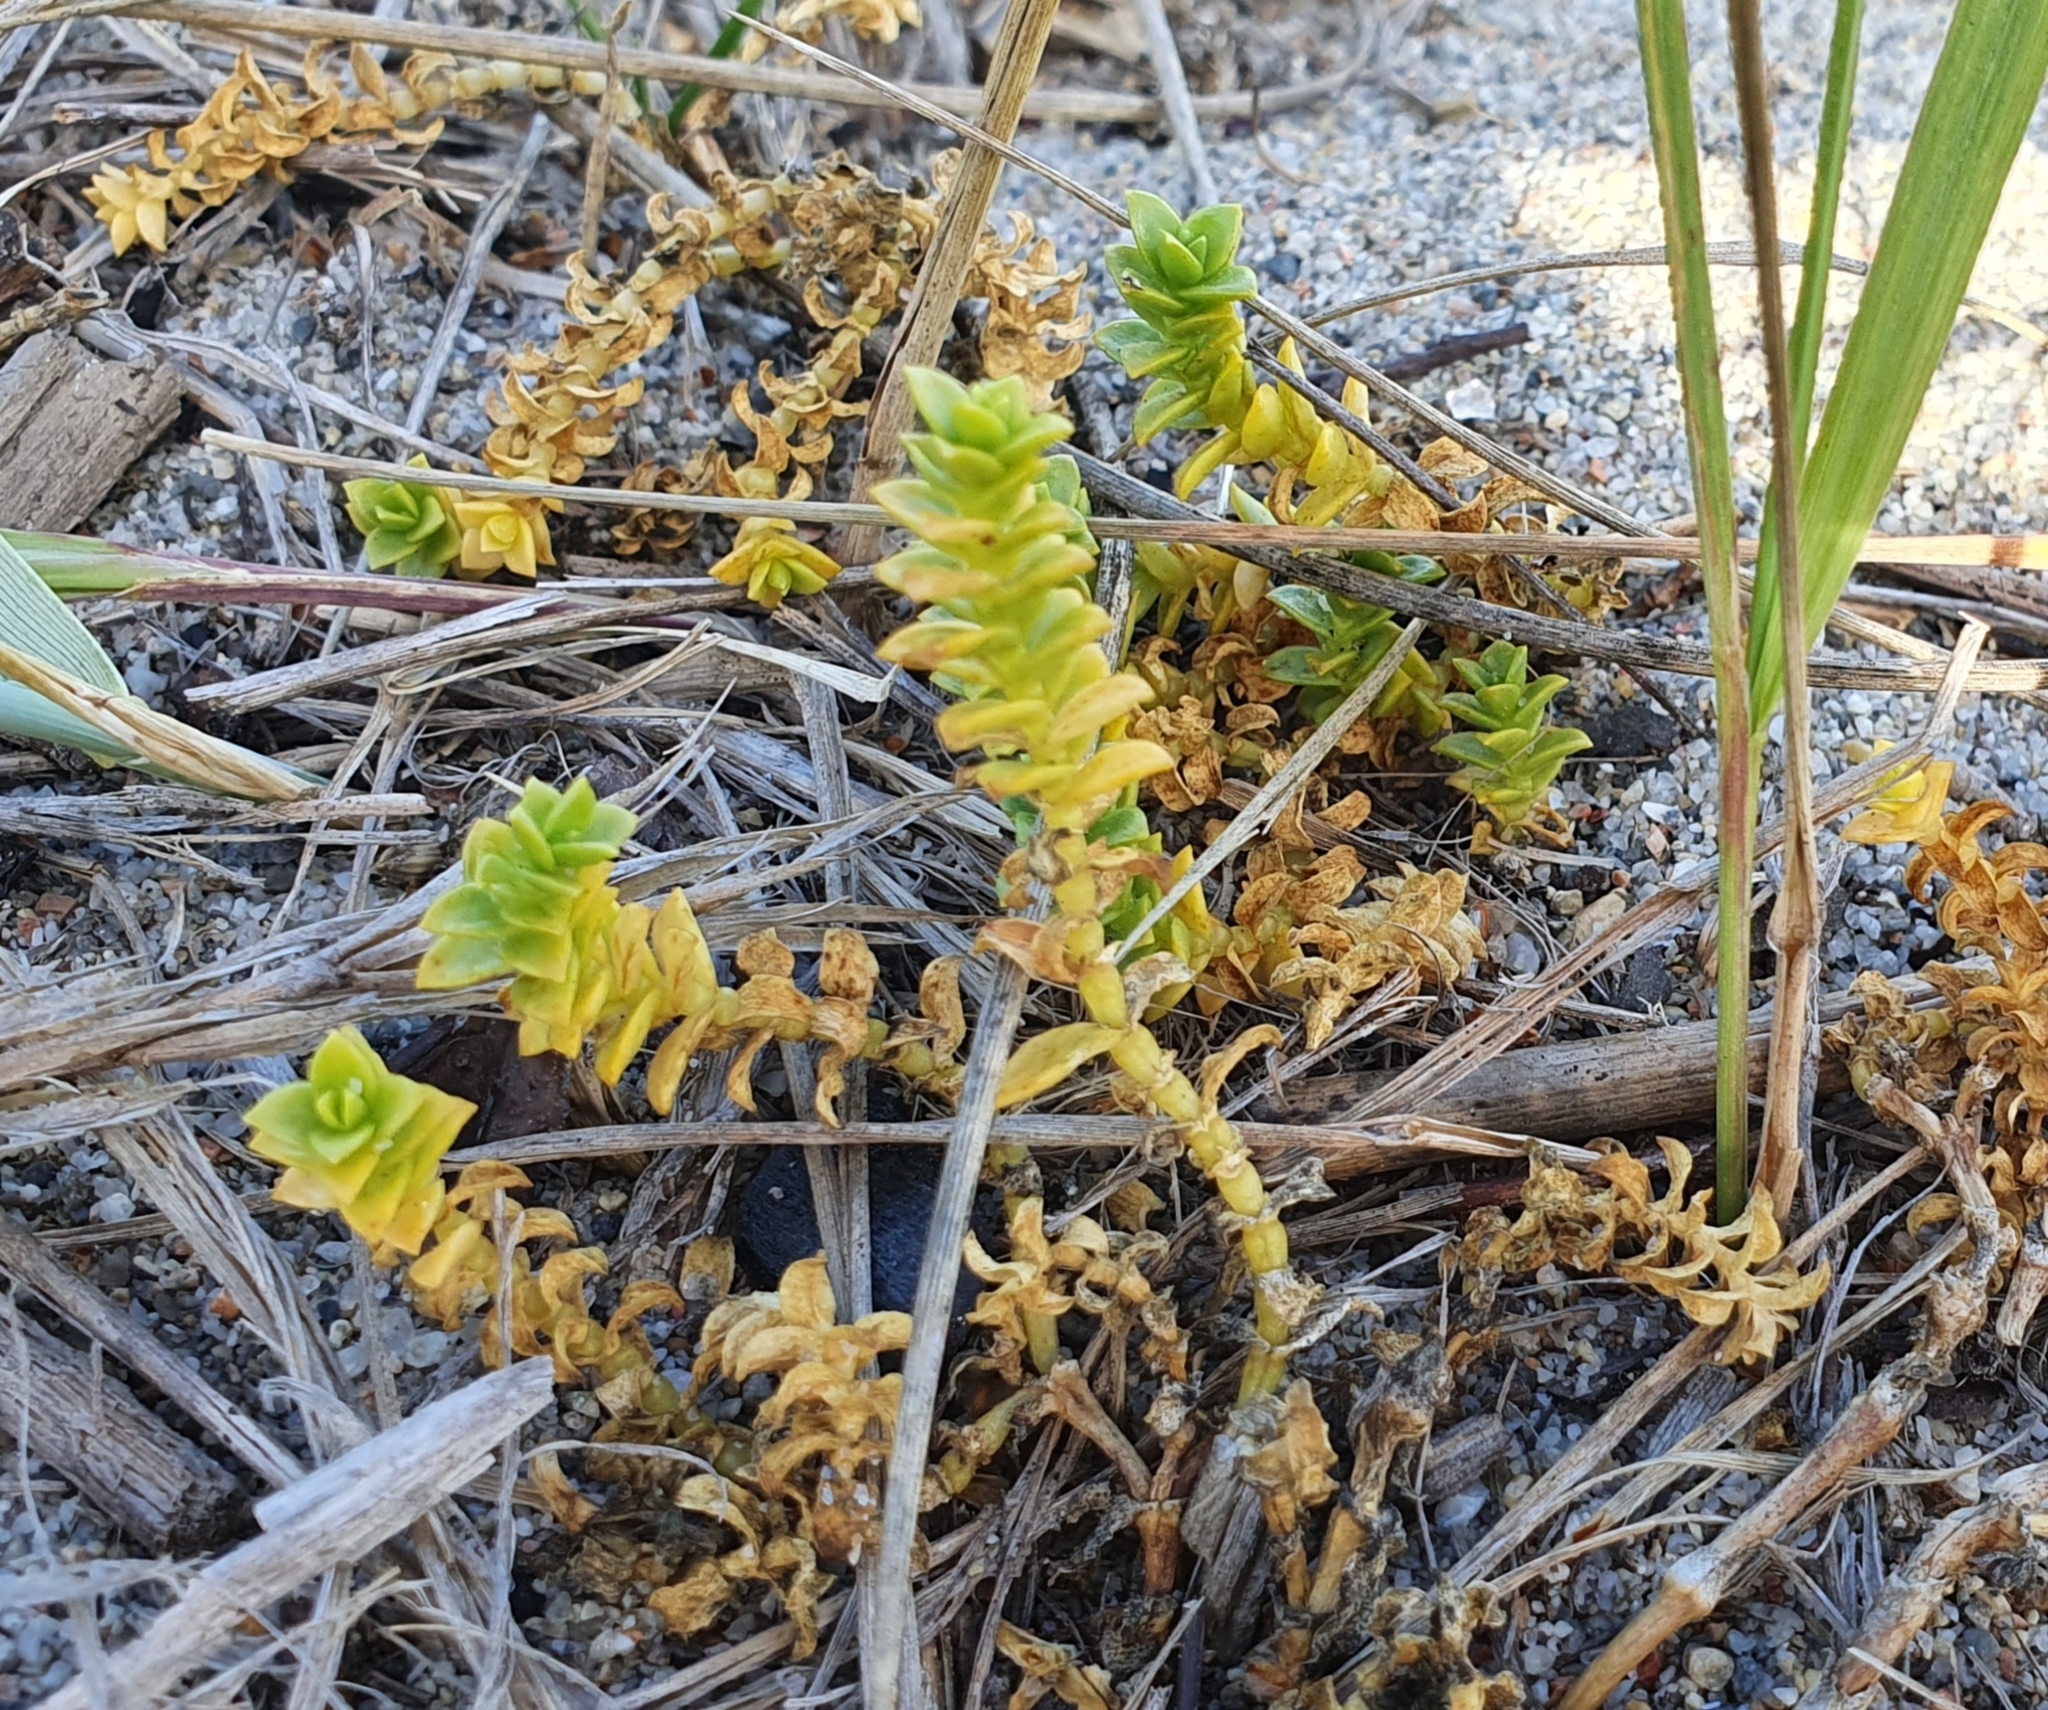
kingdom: Plantae
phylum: Tracheophyta
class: Magnoliopsida
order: Caryophyllales
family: Caryophyllaceae
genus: Honckenya
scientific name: Honckenya peploides
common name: Sea sandwort
